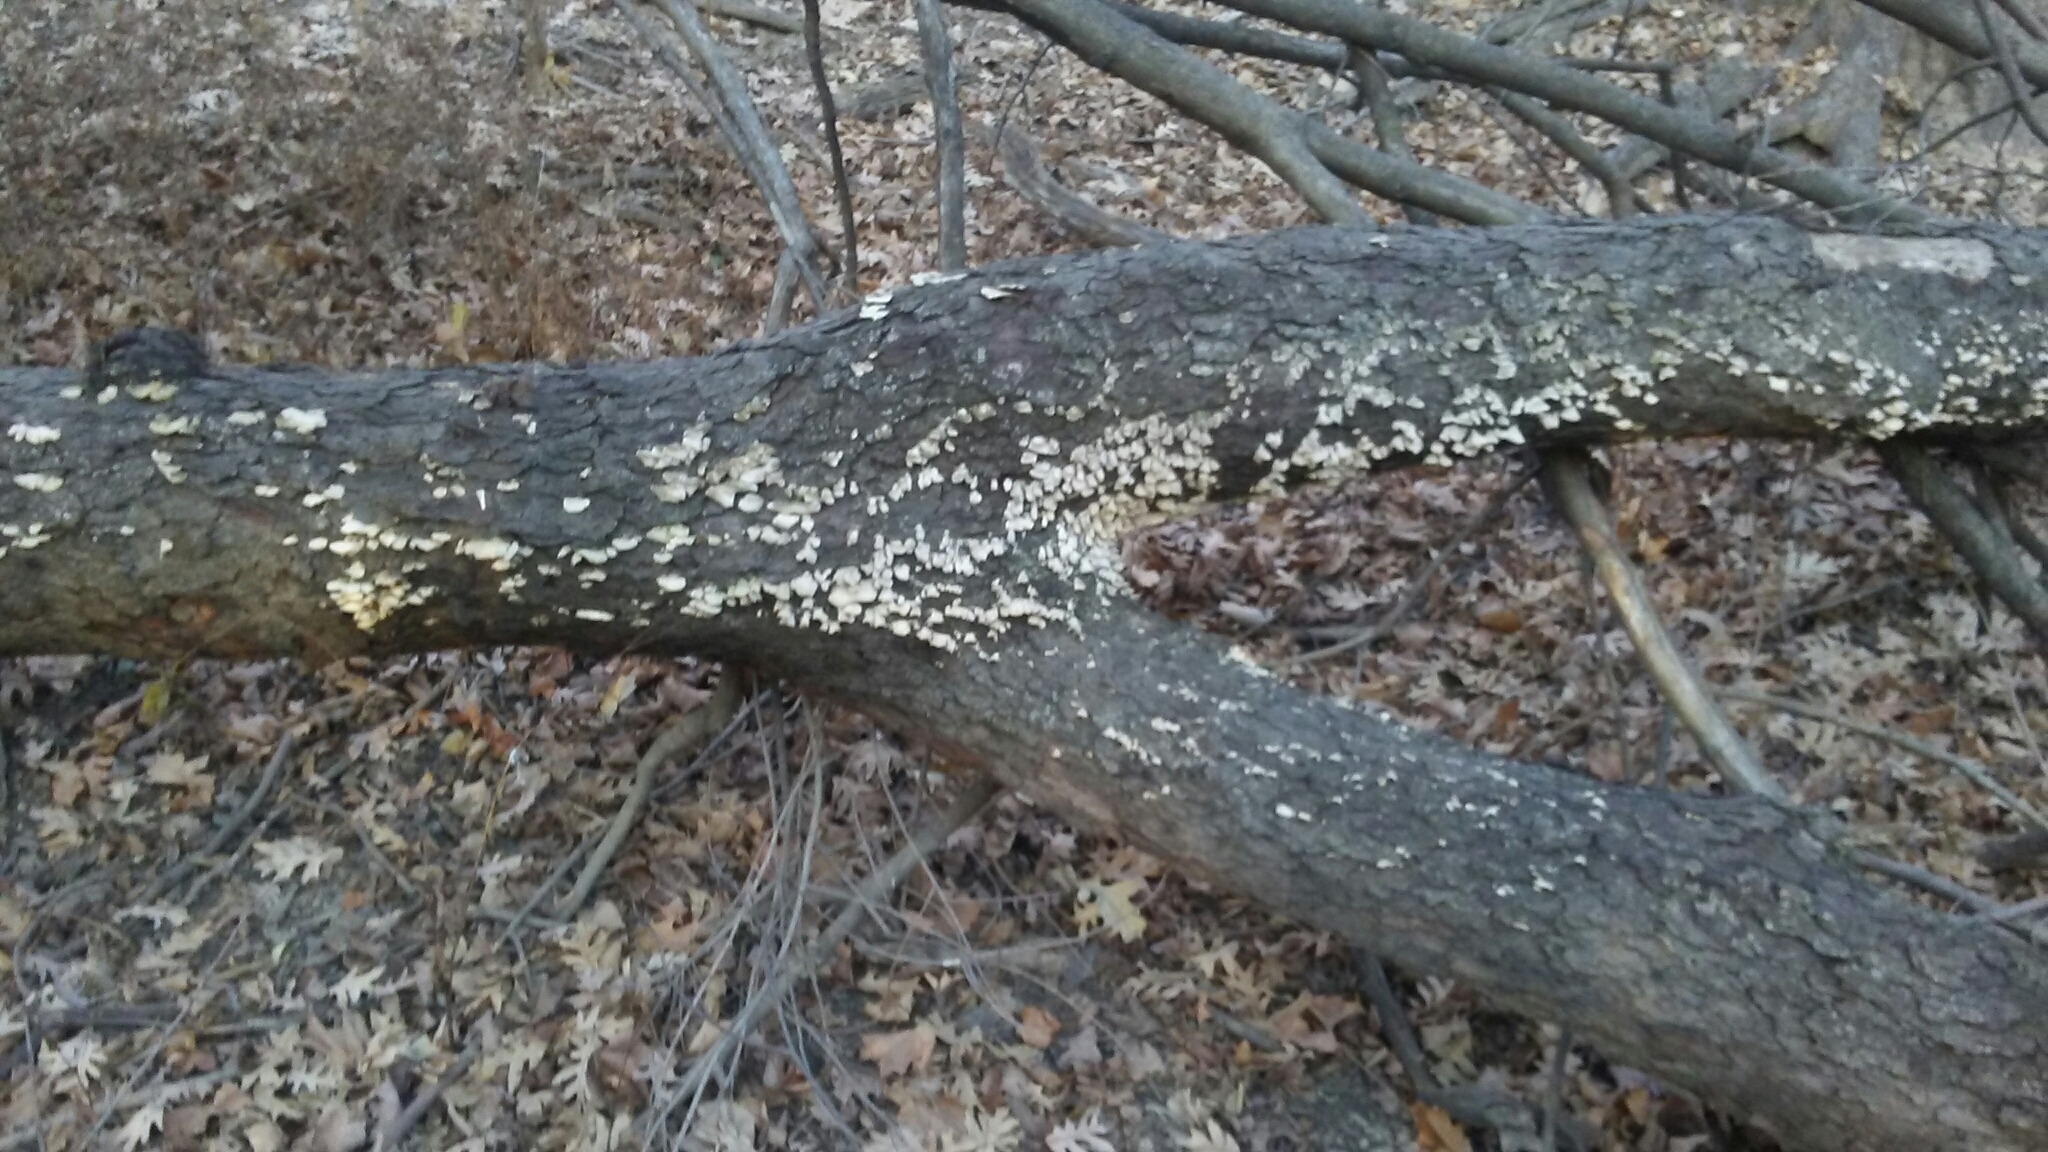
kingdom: Fungi
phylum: Basidiomycota
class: Agaricomycetes
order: Hymenochaetales
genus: Trichaptum
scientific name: Trichaptum biforme
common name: Violet-toothed polypore
